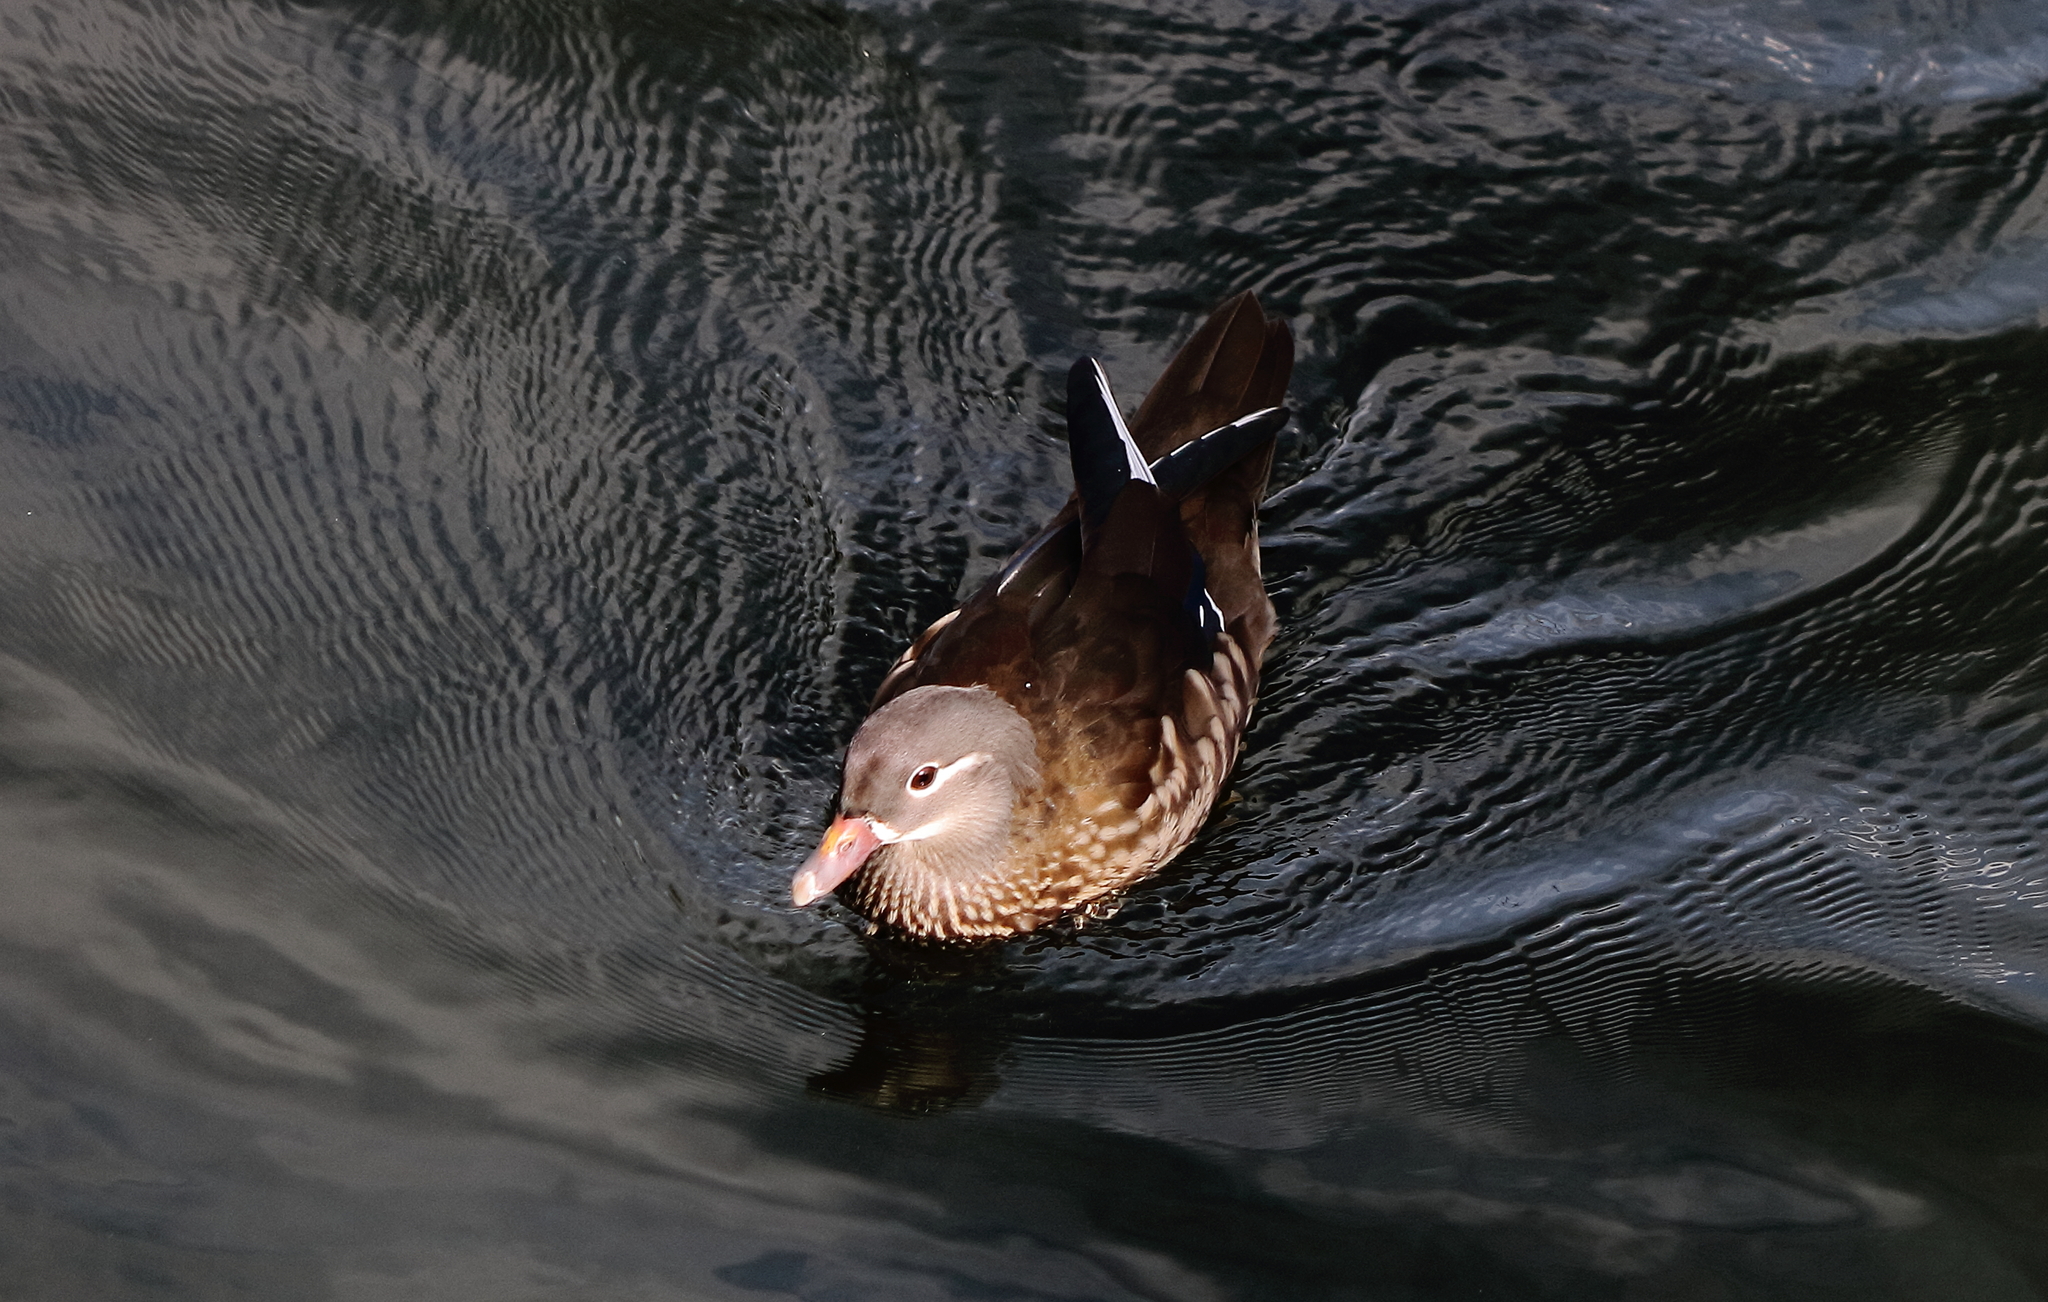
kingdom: Animalia
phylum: Chordata
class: Aves
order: Anseriformes
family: Anatidae
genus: Aix
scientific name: Aix galericulata
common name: Mandarin duck
